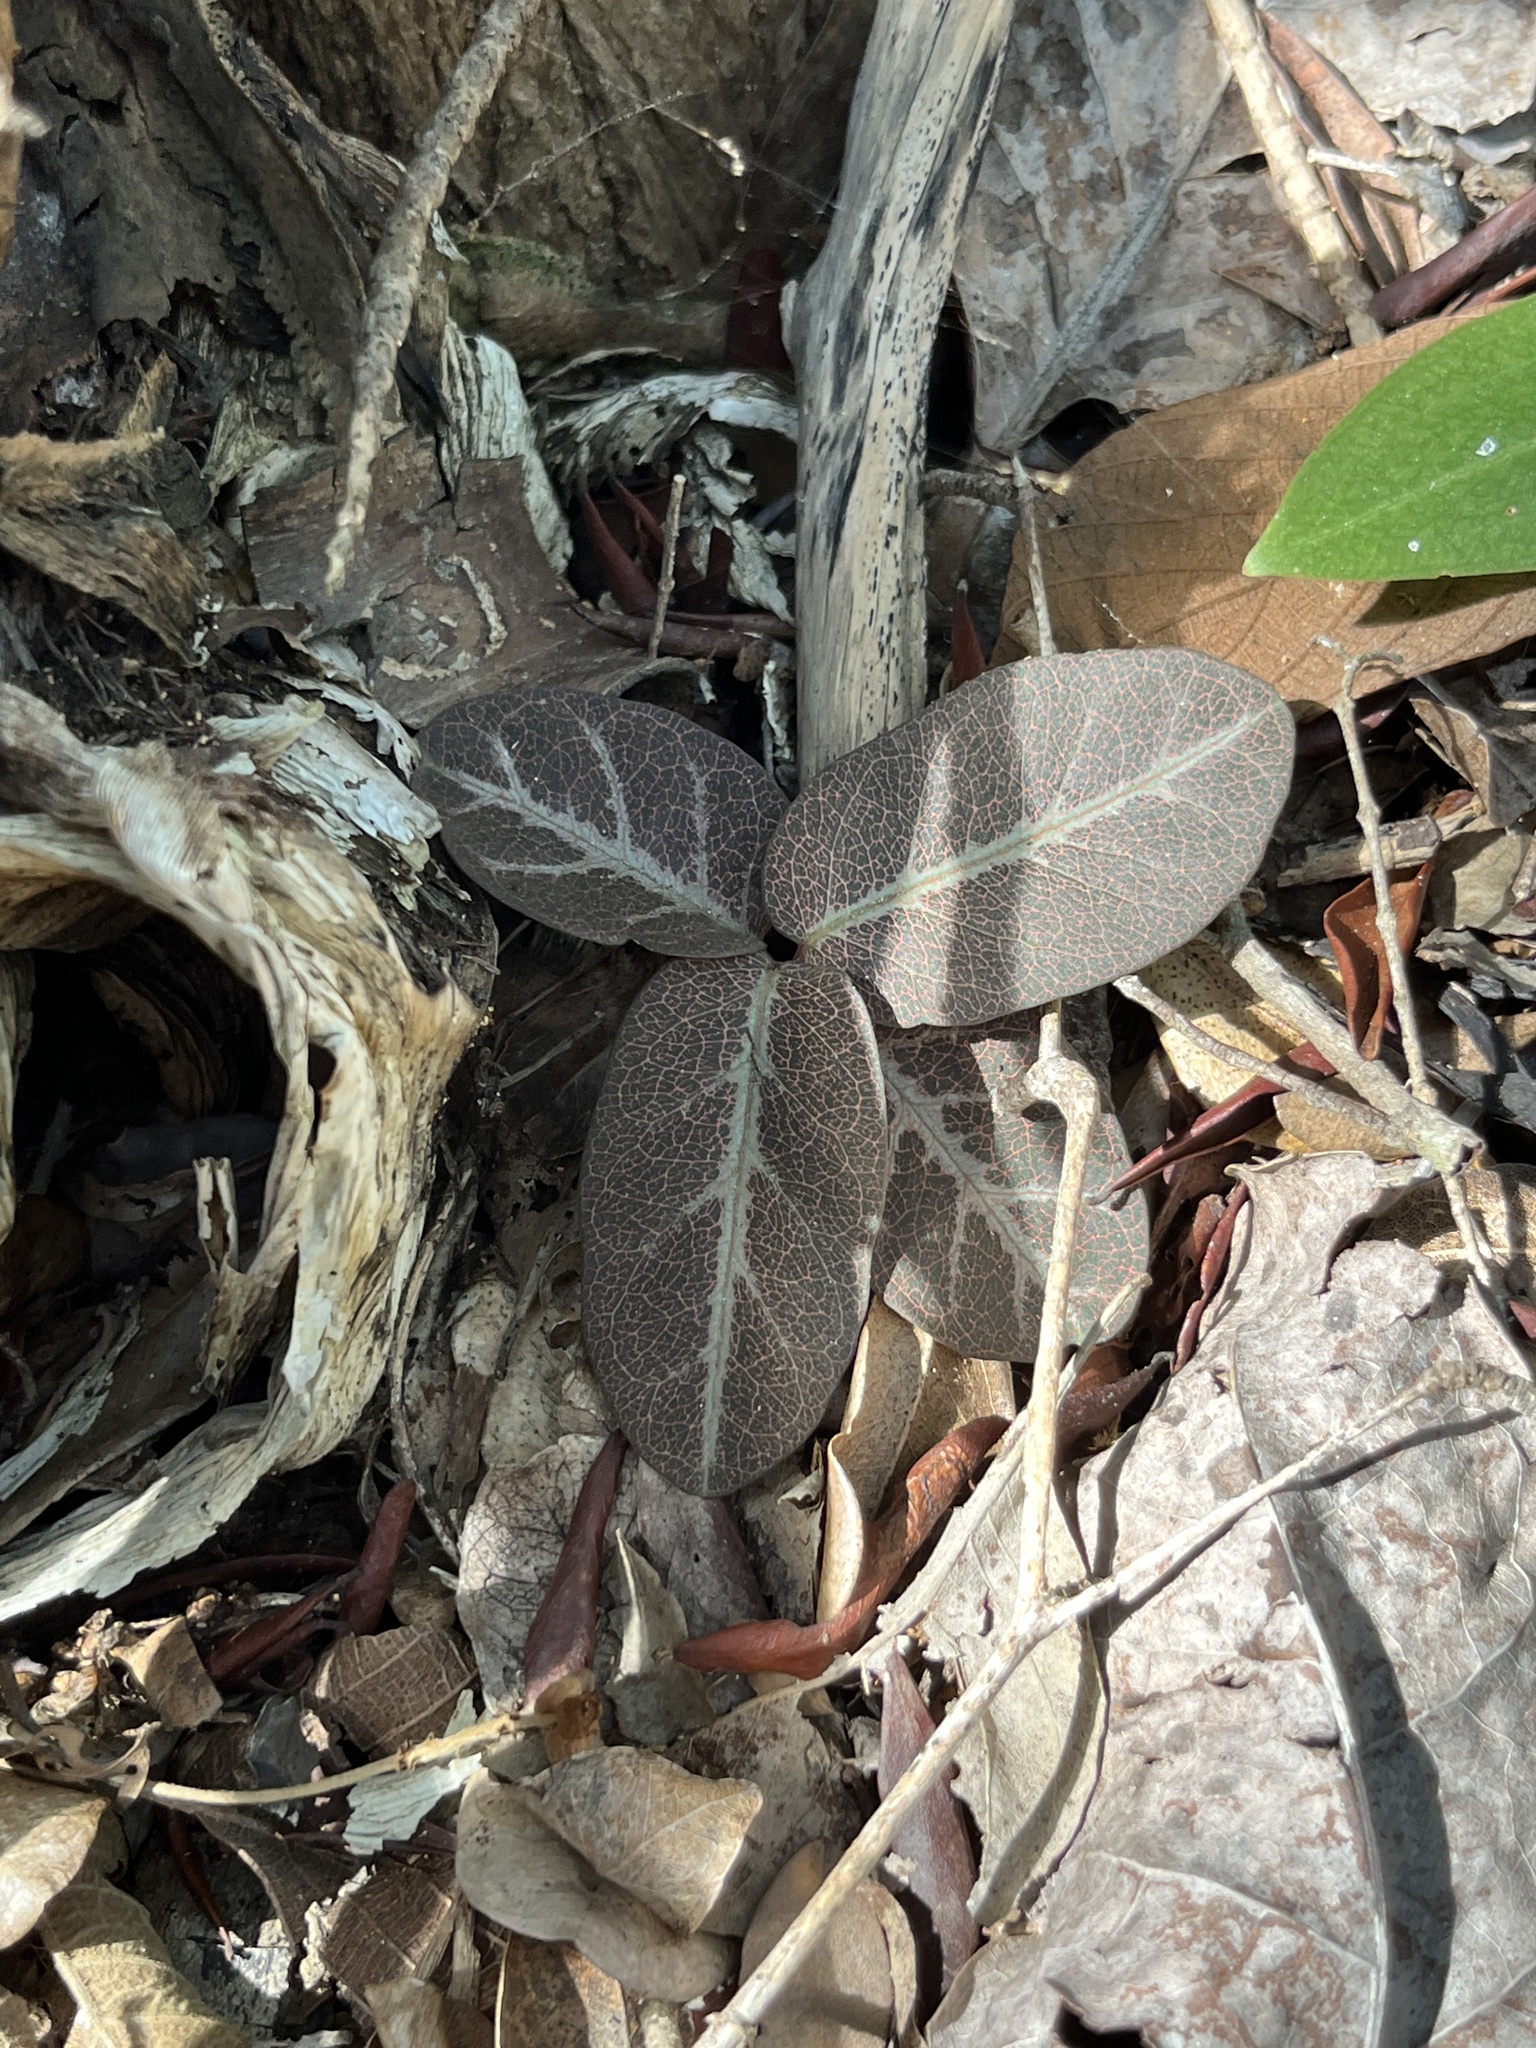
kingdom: Plantae
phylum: Tracheophyta
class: Magnoliopsida
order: Malpighiales
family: Malpighiaceae
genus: Stigmaphyllon
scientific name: Stigmaphyllon emarginatum
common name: Monarch amazonvine
